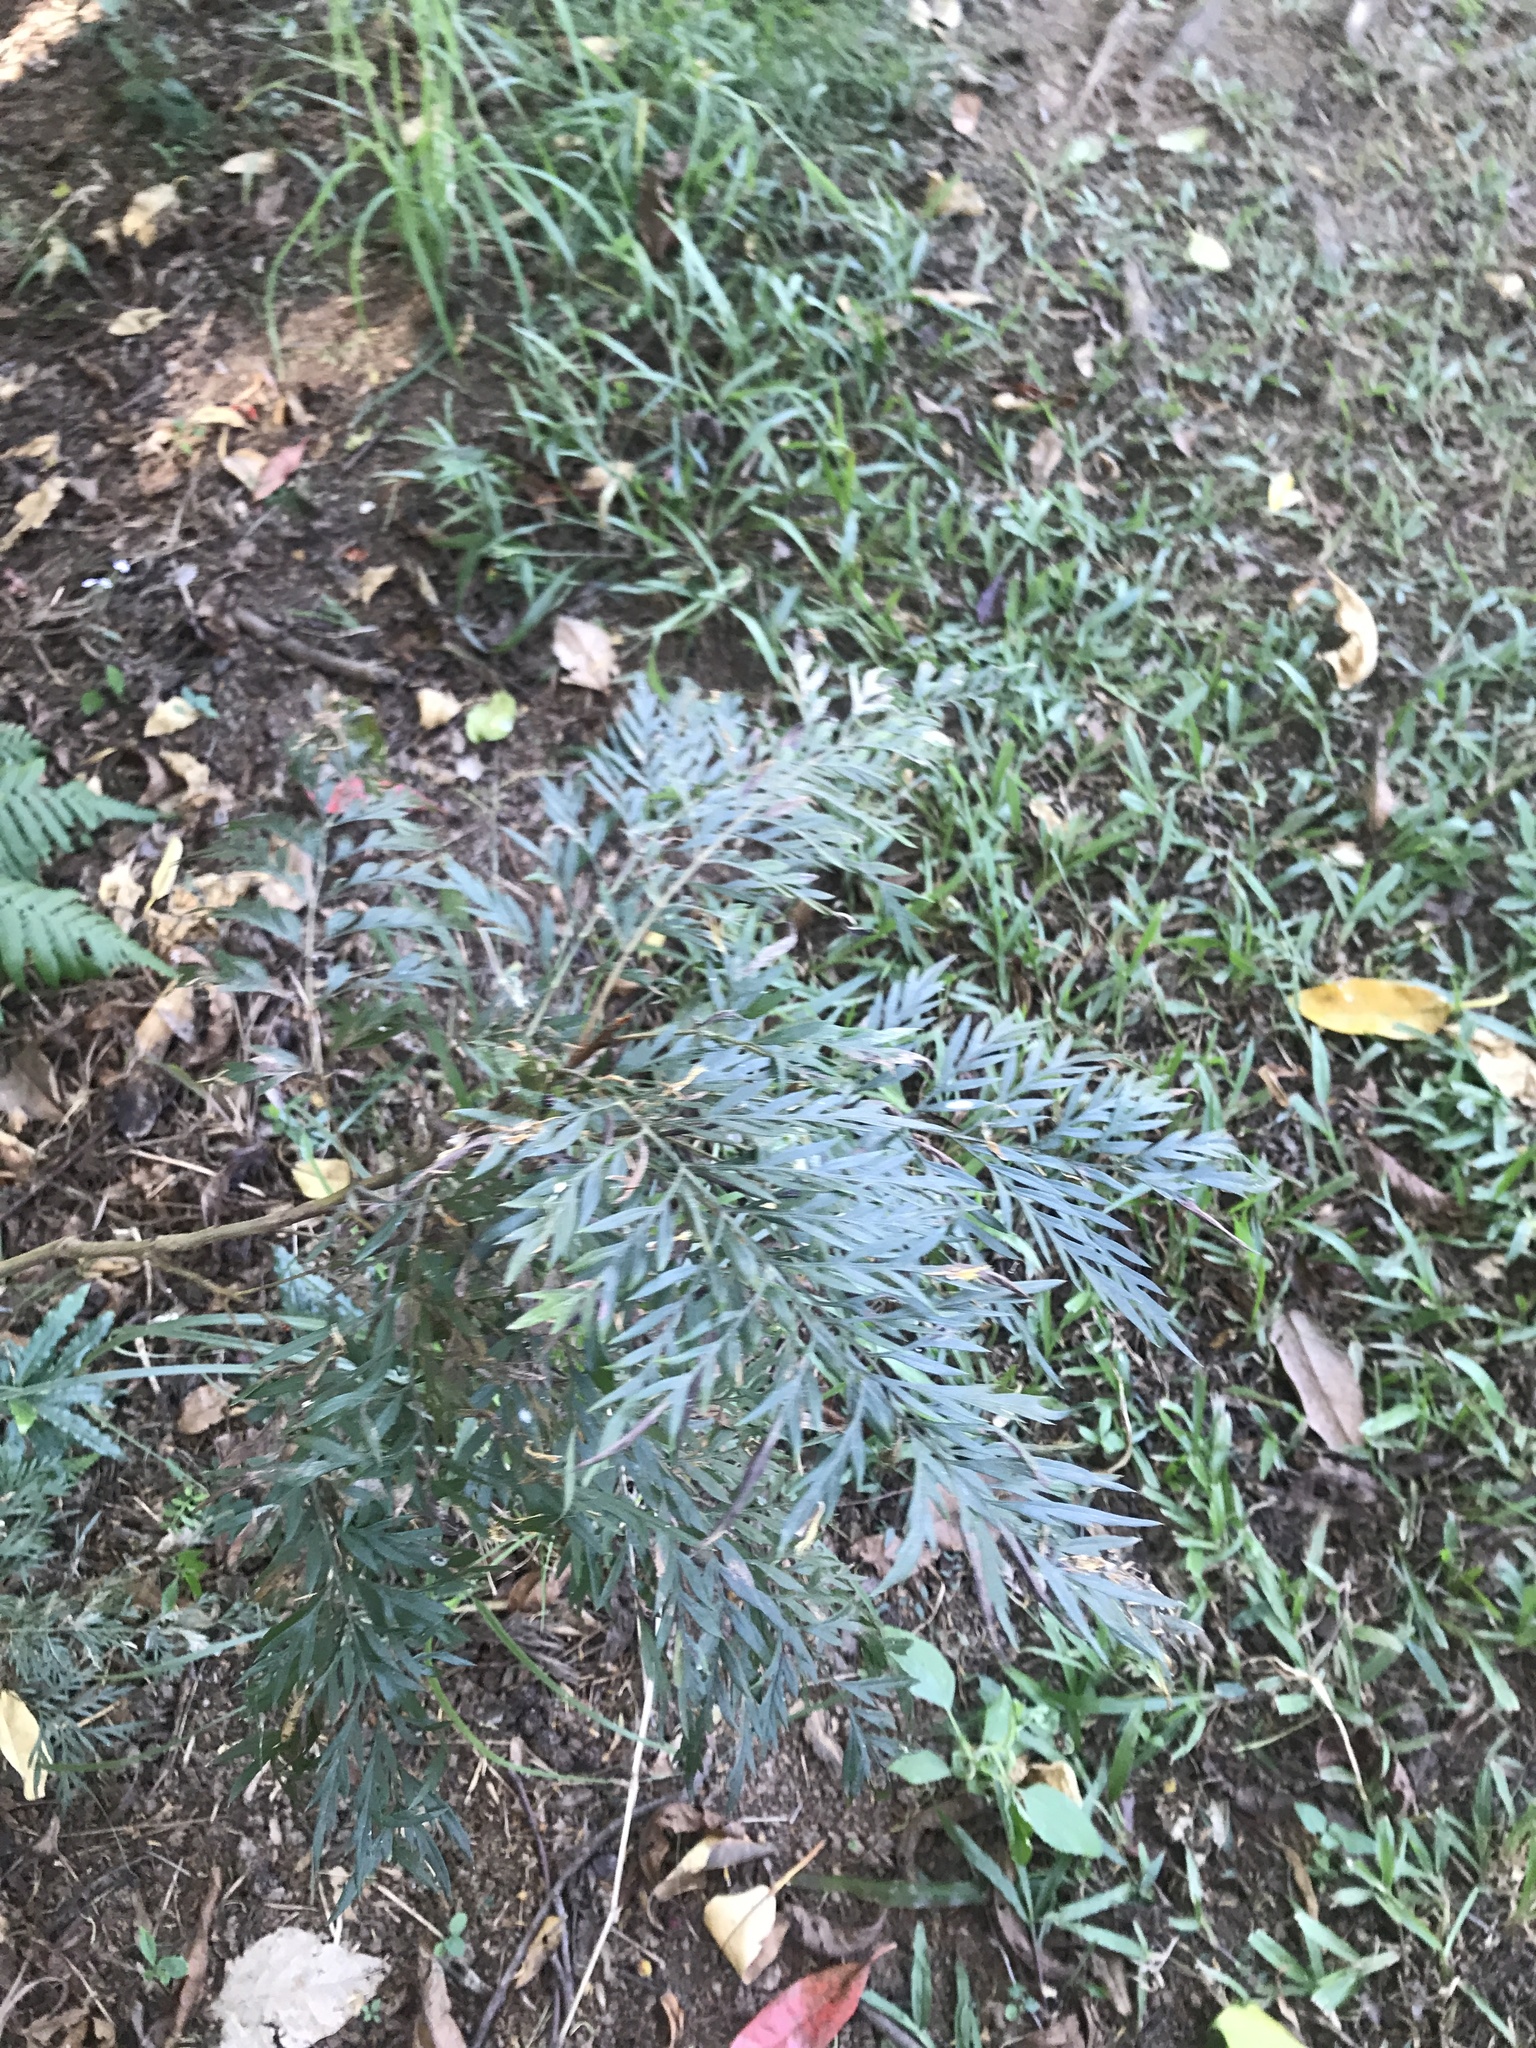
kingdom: Plantae
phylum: Tracheophyta
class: Magnoliopsida
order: Proteales
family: Proteaceae
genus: Grevillea
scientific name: Grevillea robusta
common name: Silkoak
